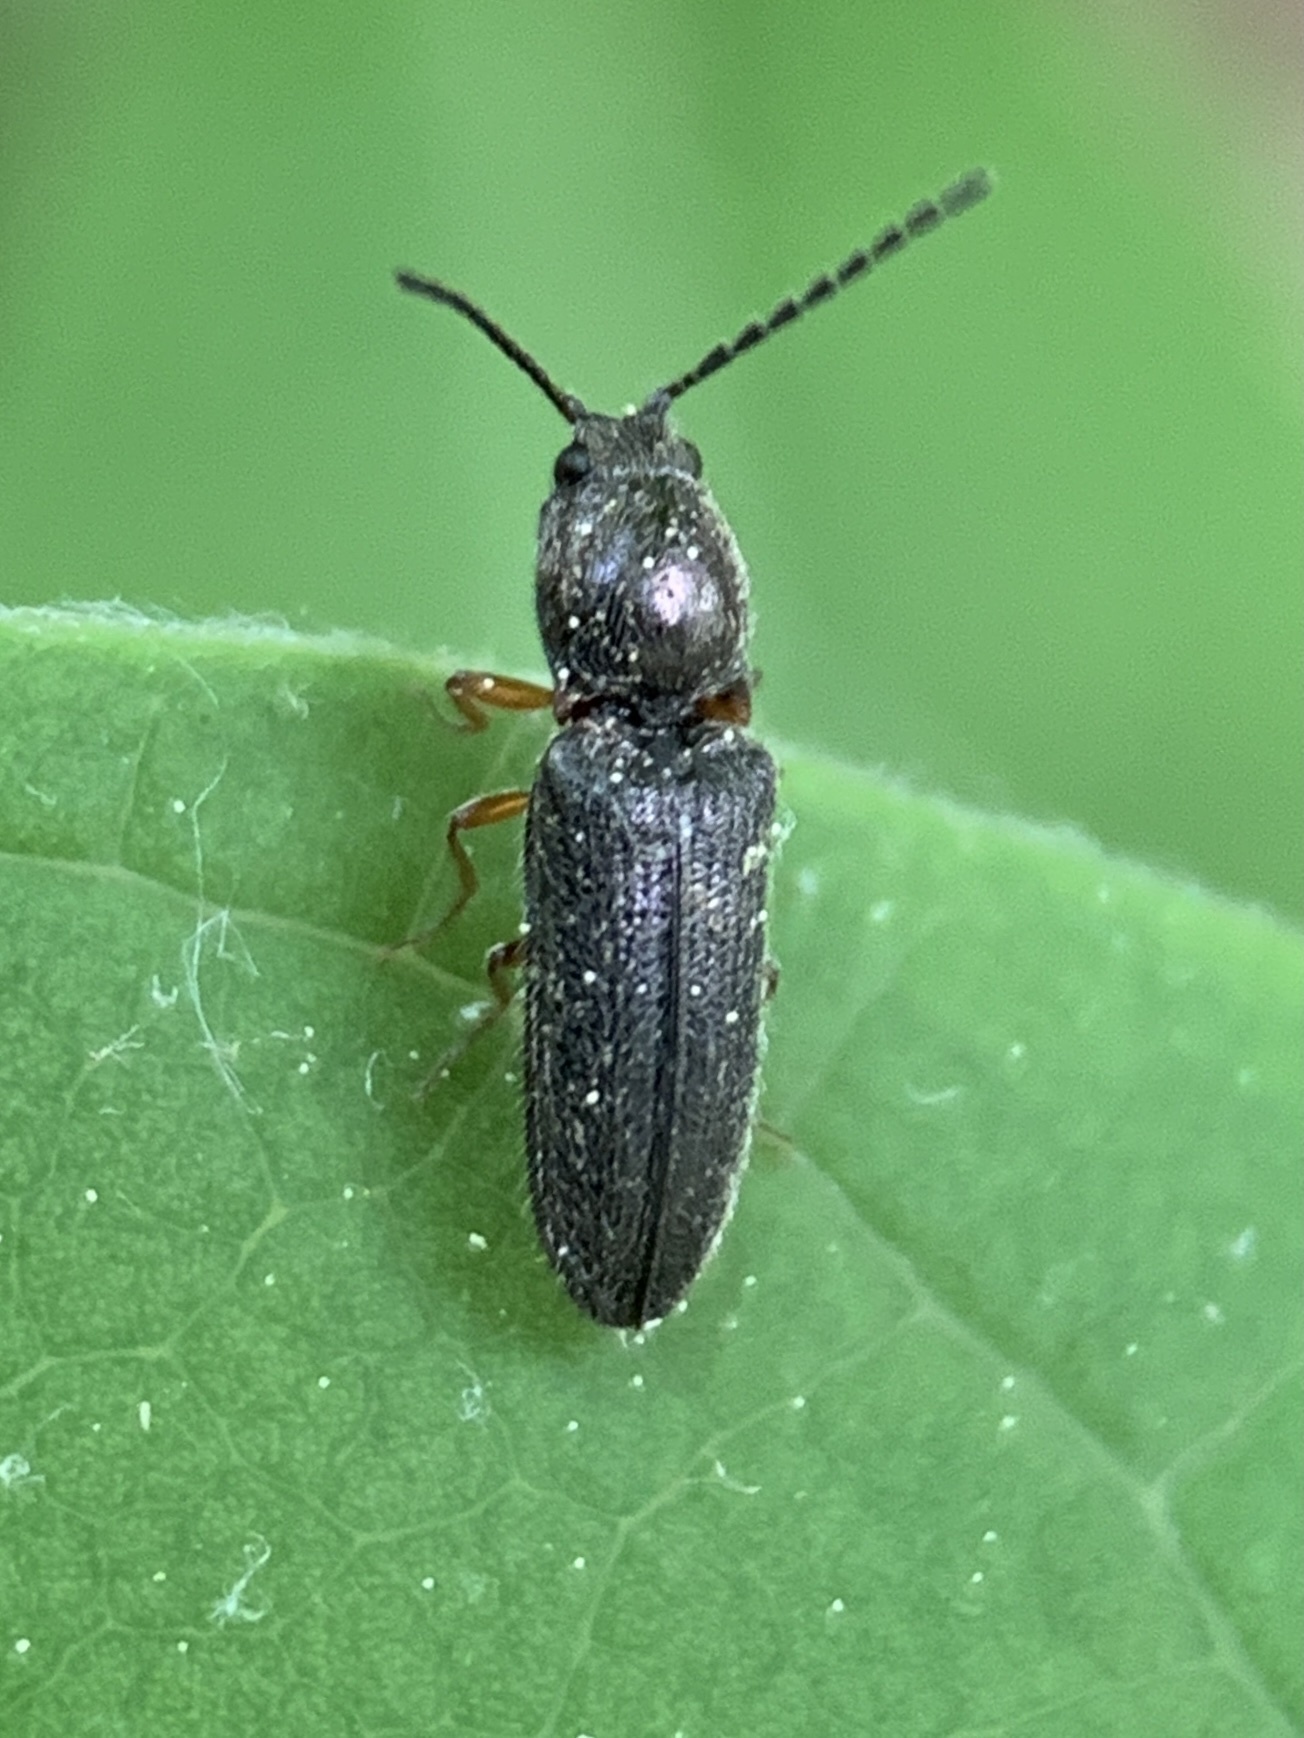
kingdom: Animalia
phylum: Arthropoda
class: Insecta
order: Coleoptera
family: Elateridae
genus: Limonius
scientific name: Limonius basilaris
